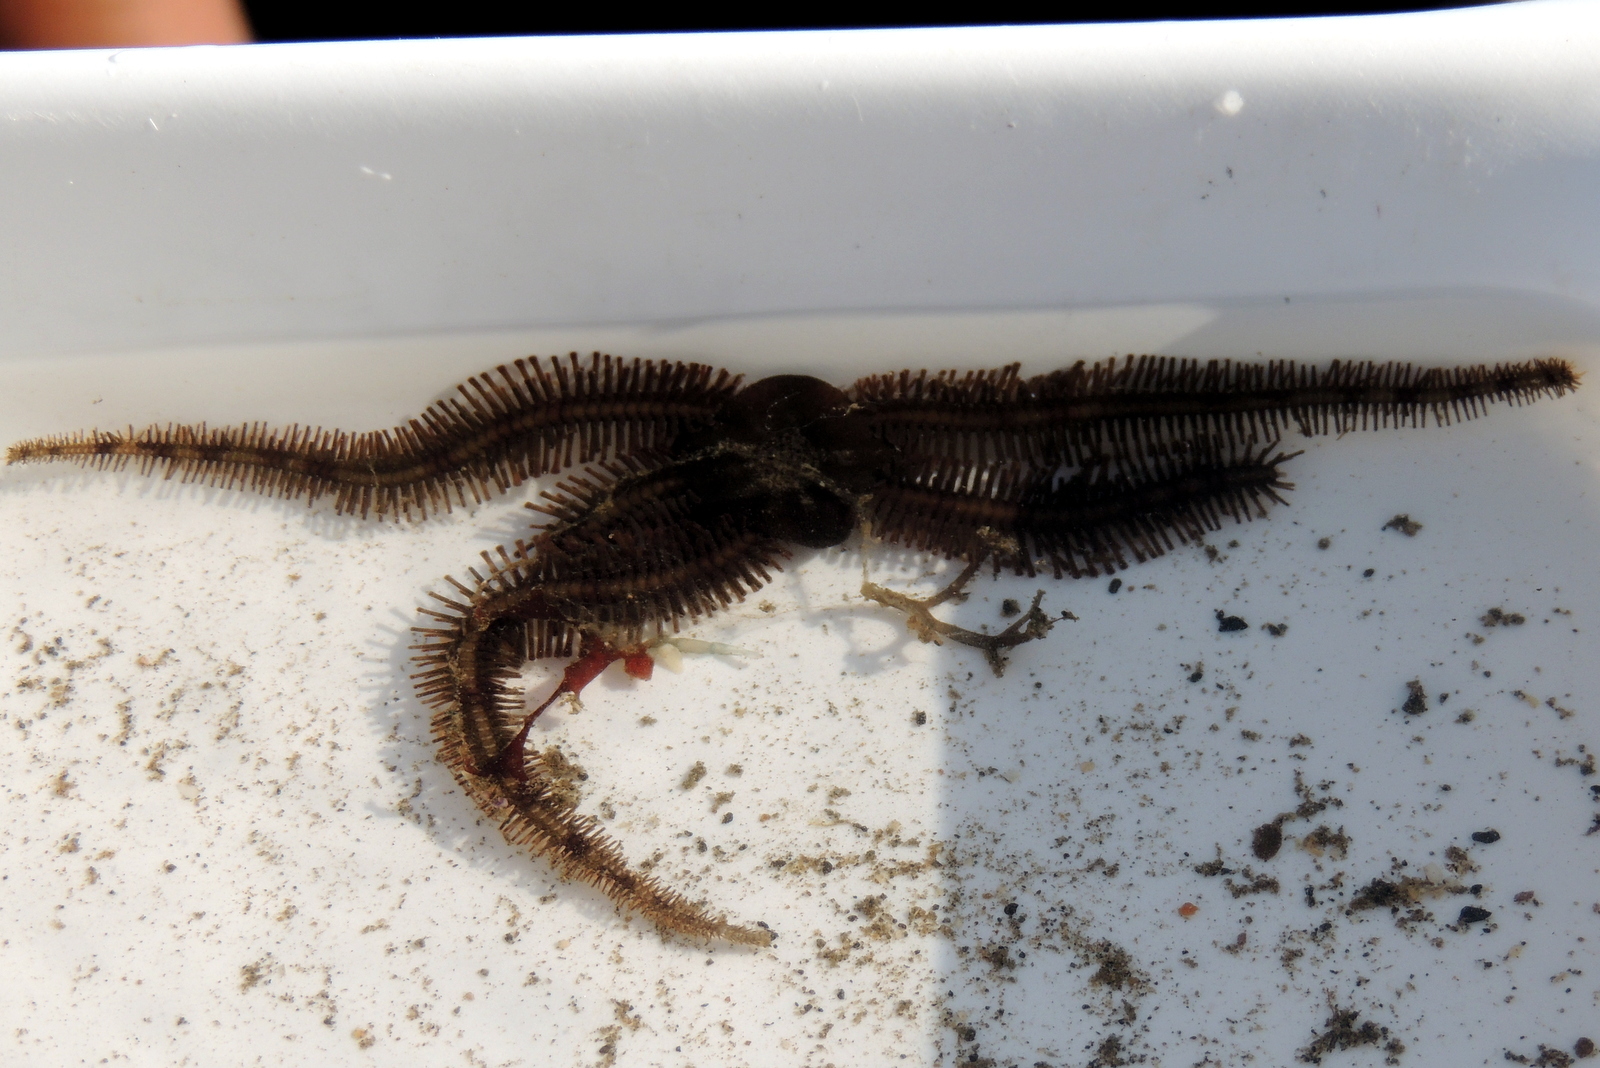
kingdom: Animalia
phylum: Echinodermata
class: Ophiuroidea
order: Ophiacanthida
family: Ophiopteridae
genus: Ophiopteris
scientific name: Ophiopteris papillosa
